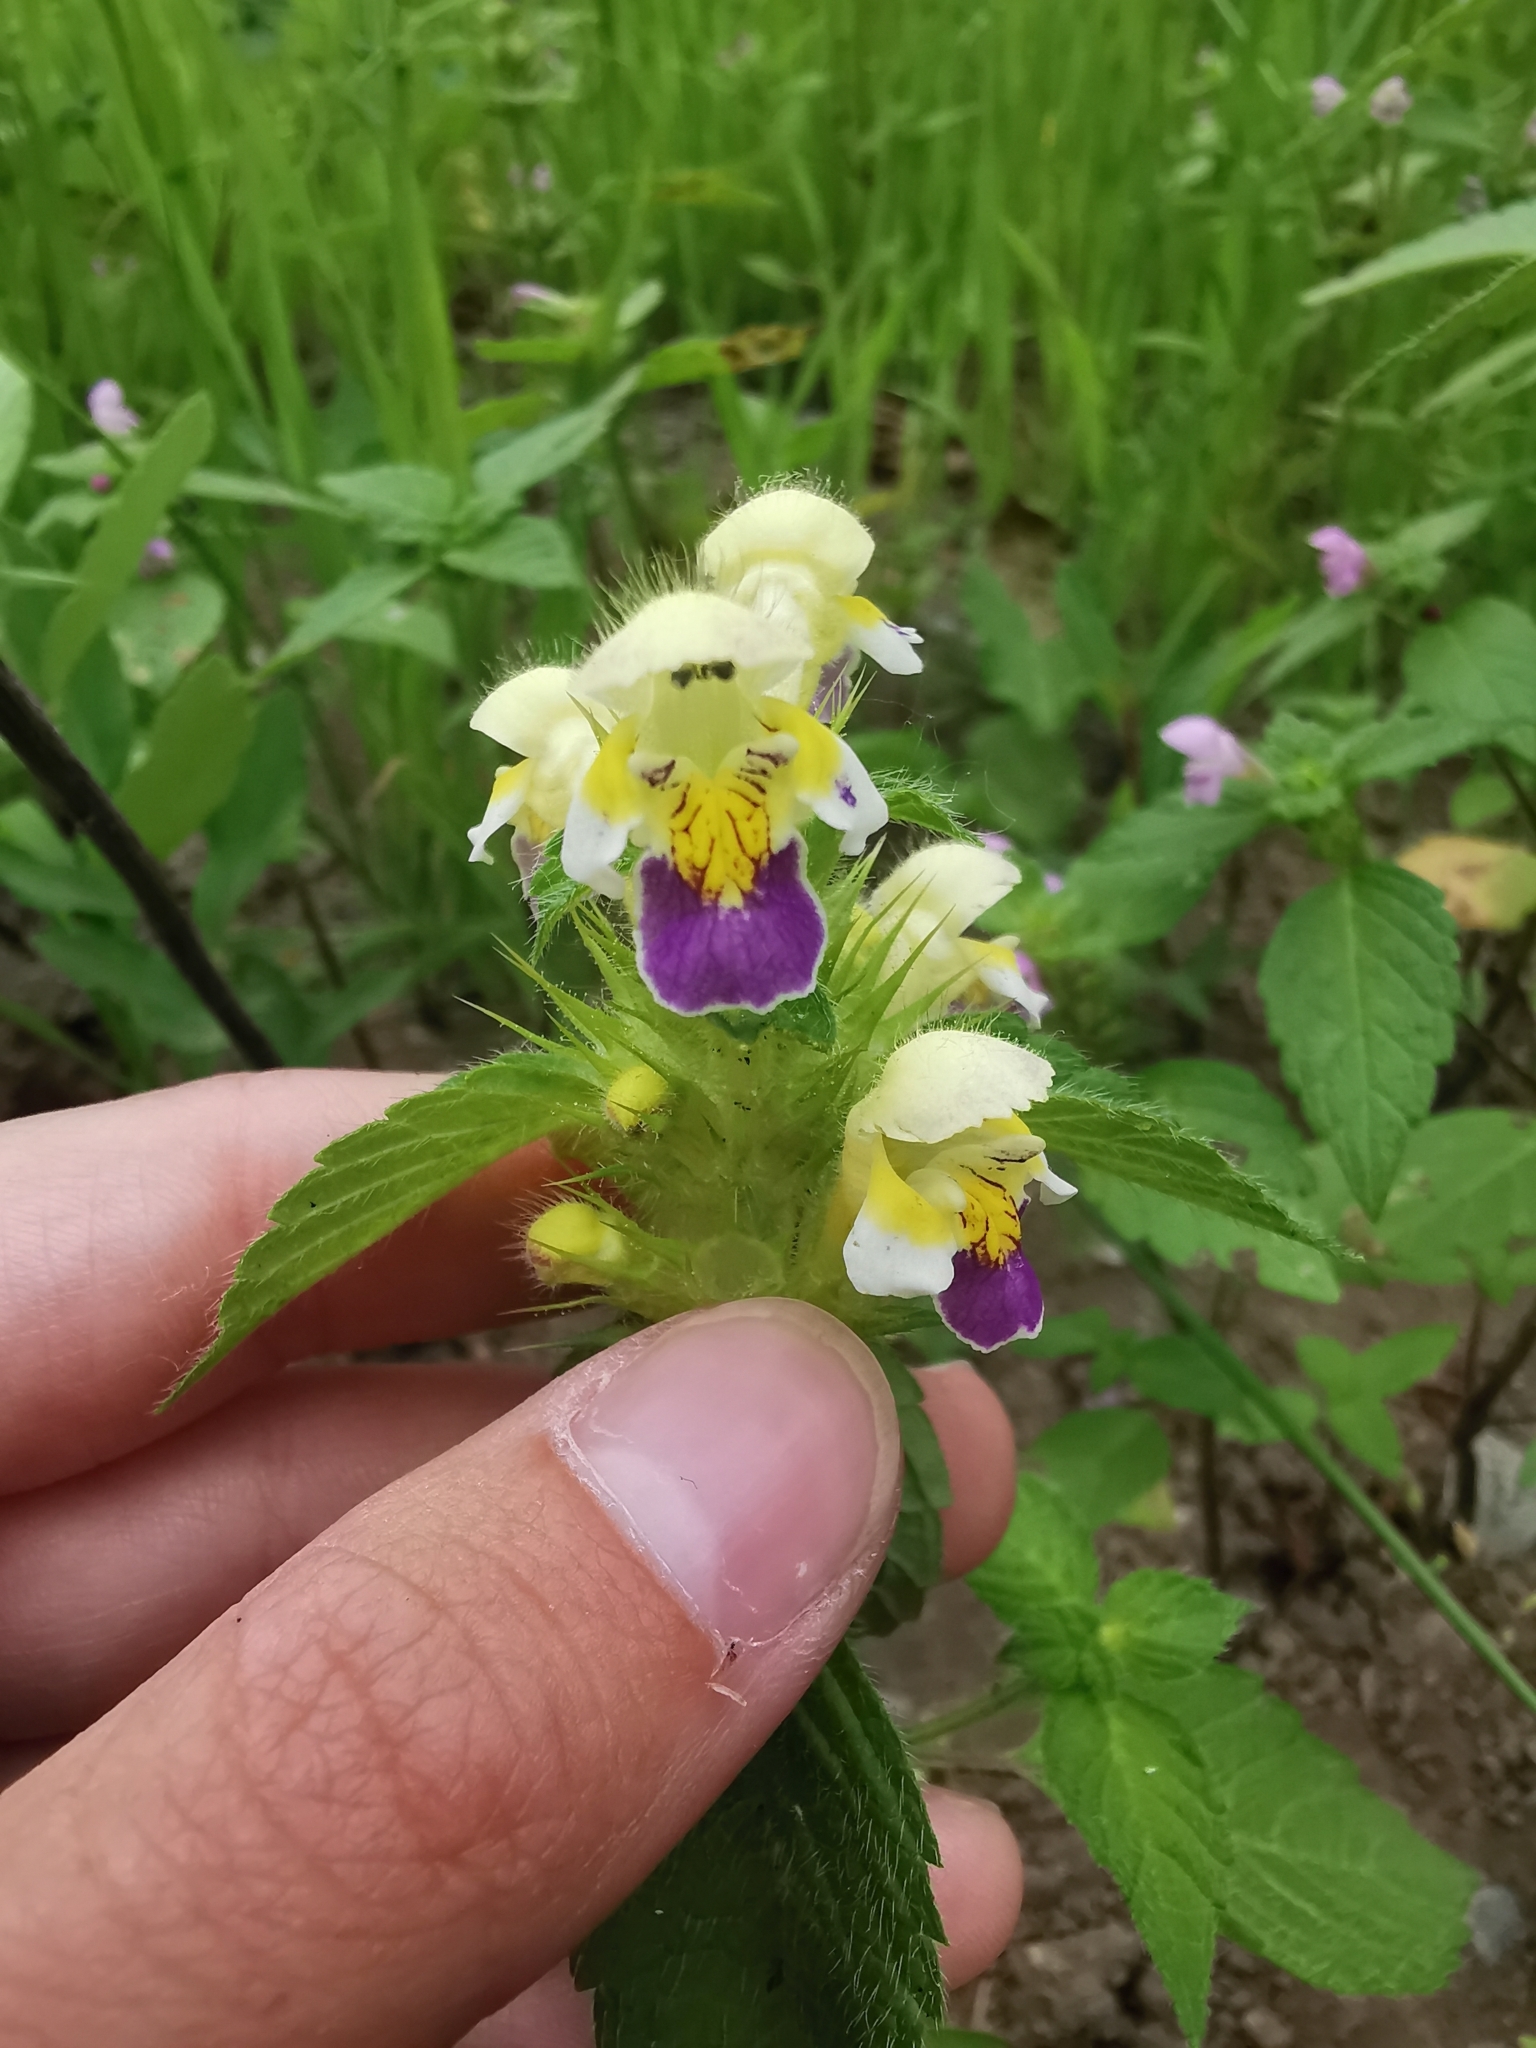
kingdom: Plantae
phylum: Tracheophyta
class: Magnoliopsida
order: Lamiales
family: Lamiaceae
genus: Galeopsis
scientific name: Galeopsis speciosa
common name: Large-flowered hemp-nettle
